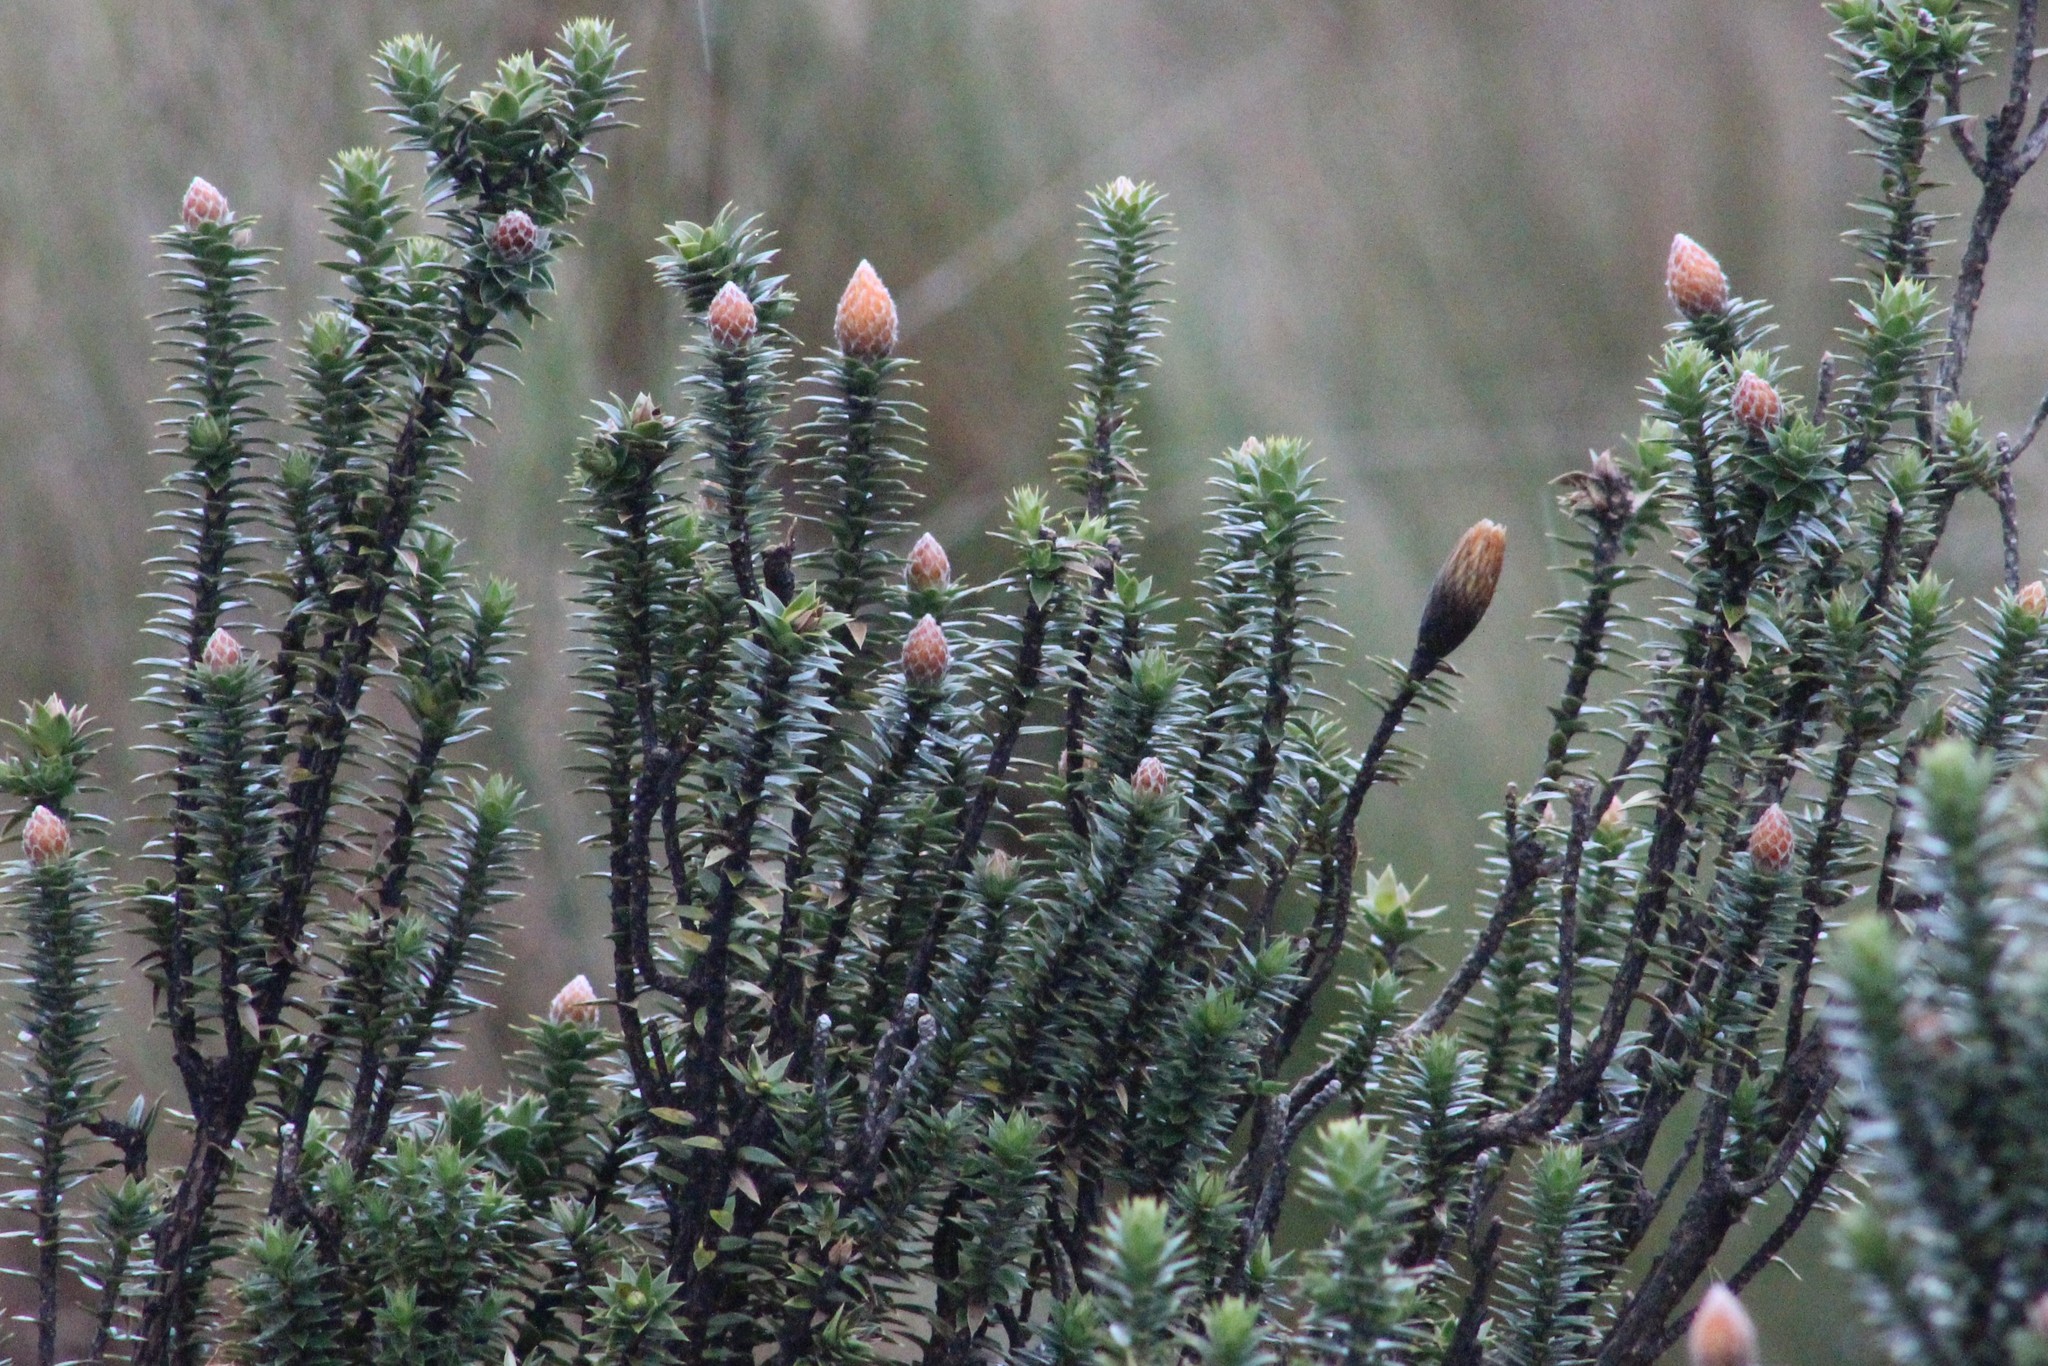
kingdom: Plantae
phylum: Tracheophyta
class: Magnoliopsida
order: Asterales
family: Asteraceae
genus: Chuquiraga
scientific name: Chuquiraga jussieui
